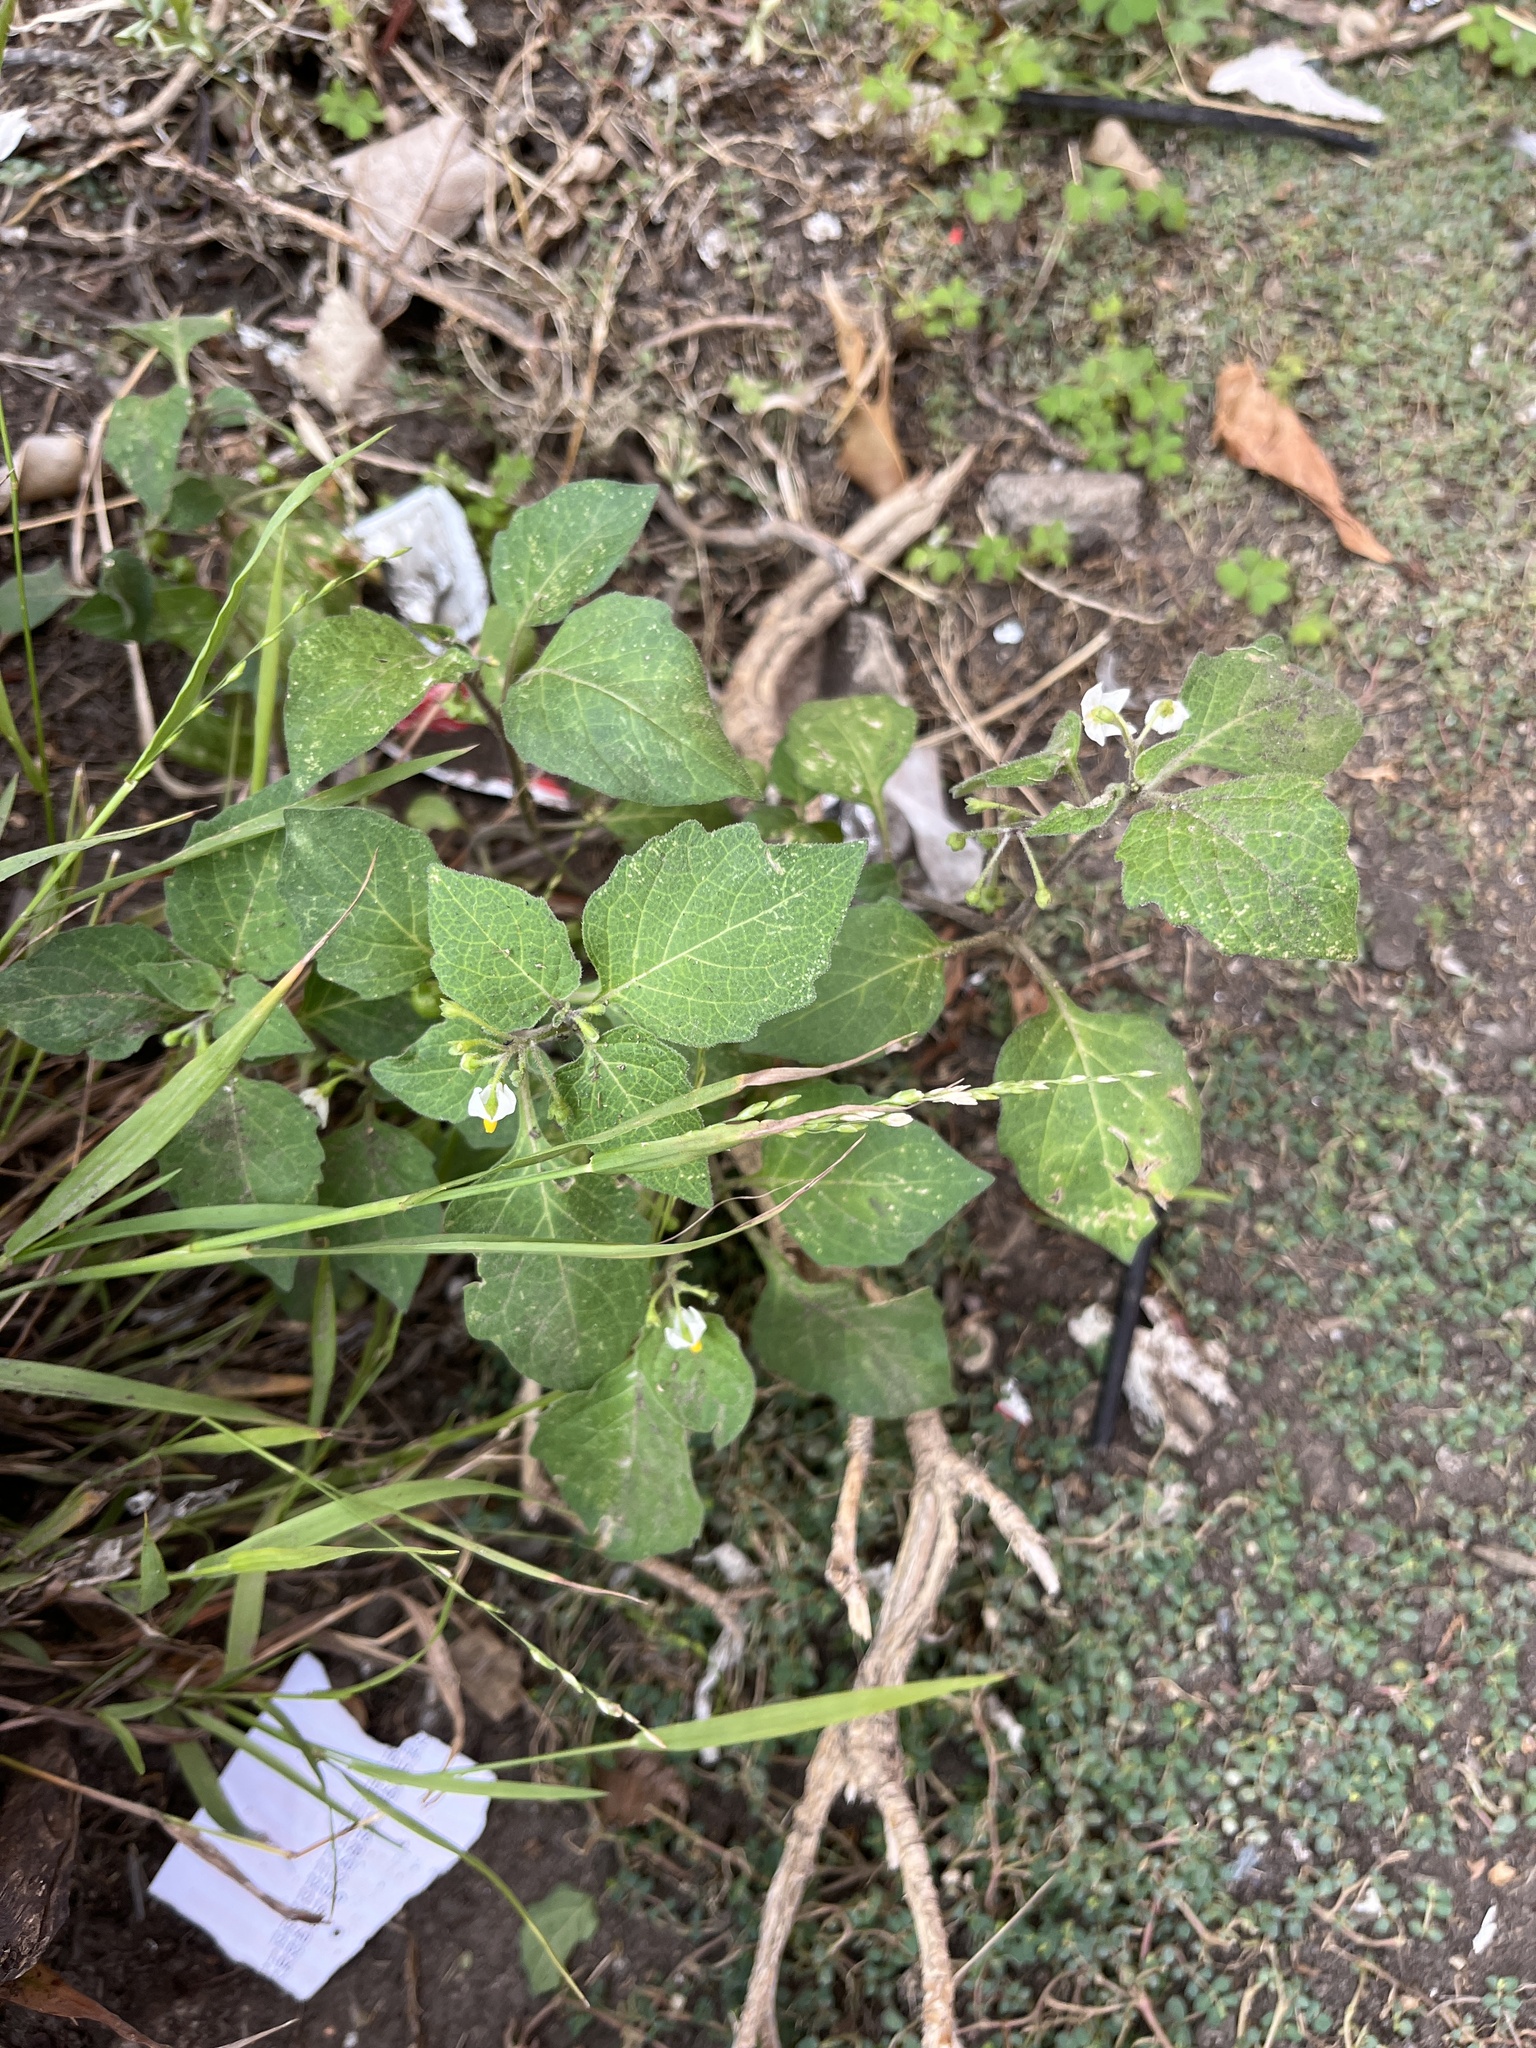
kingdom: Plantae
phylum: Tracheophyta
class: Magnoliopsida
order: Solanales
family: Solanaceae
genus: Solanum
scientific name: Solanum nigrum
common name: Black nightshade
